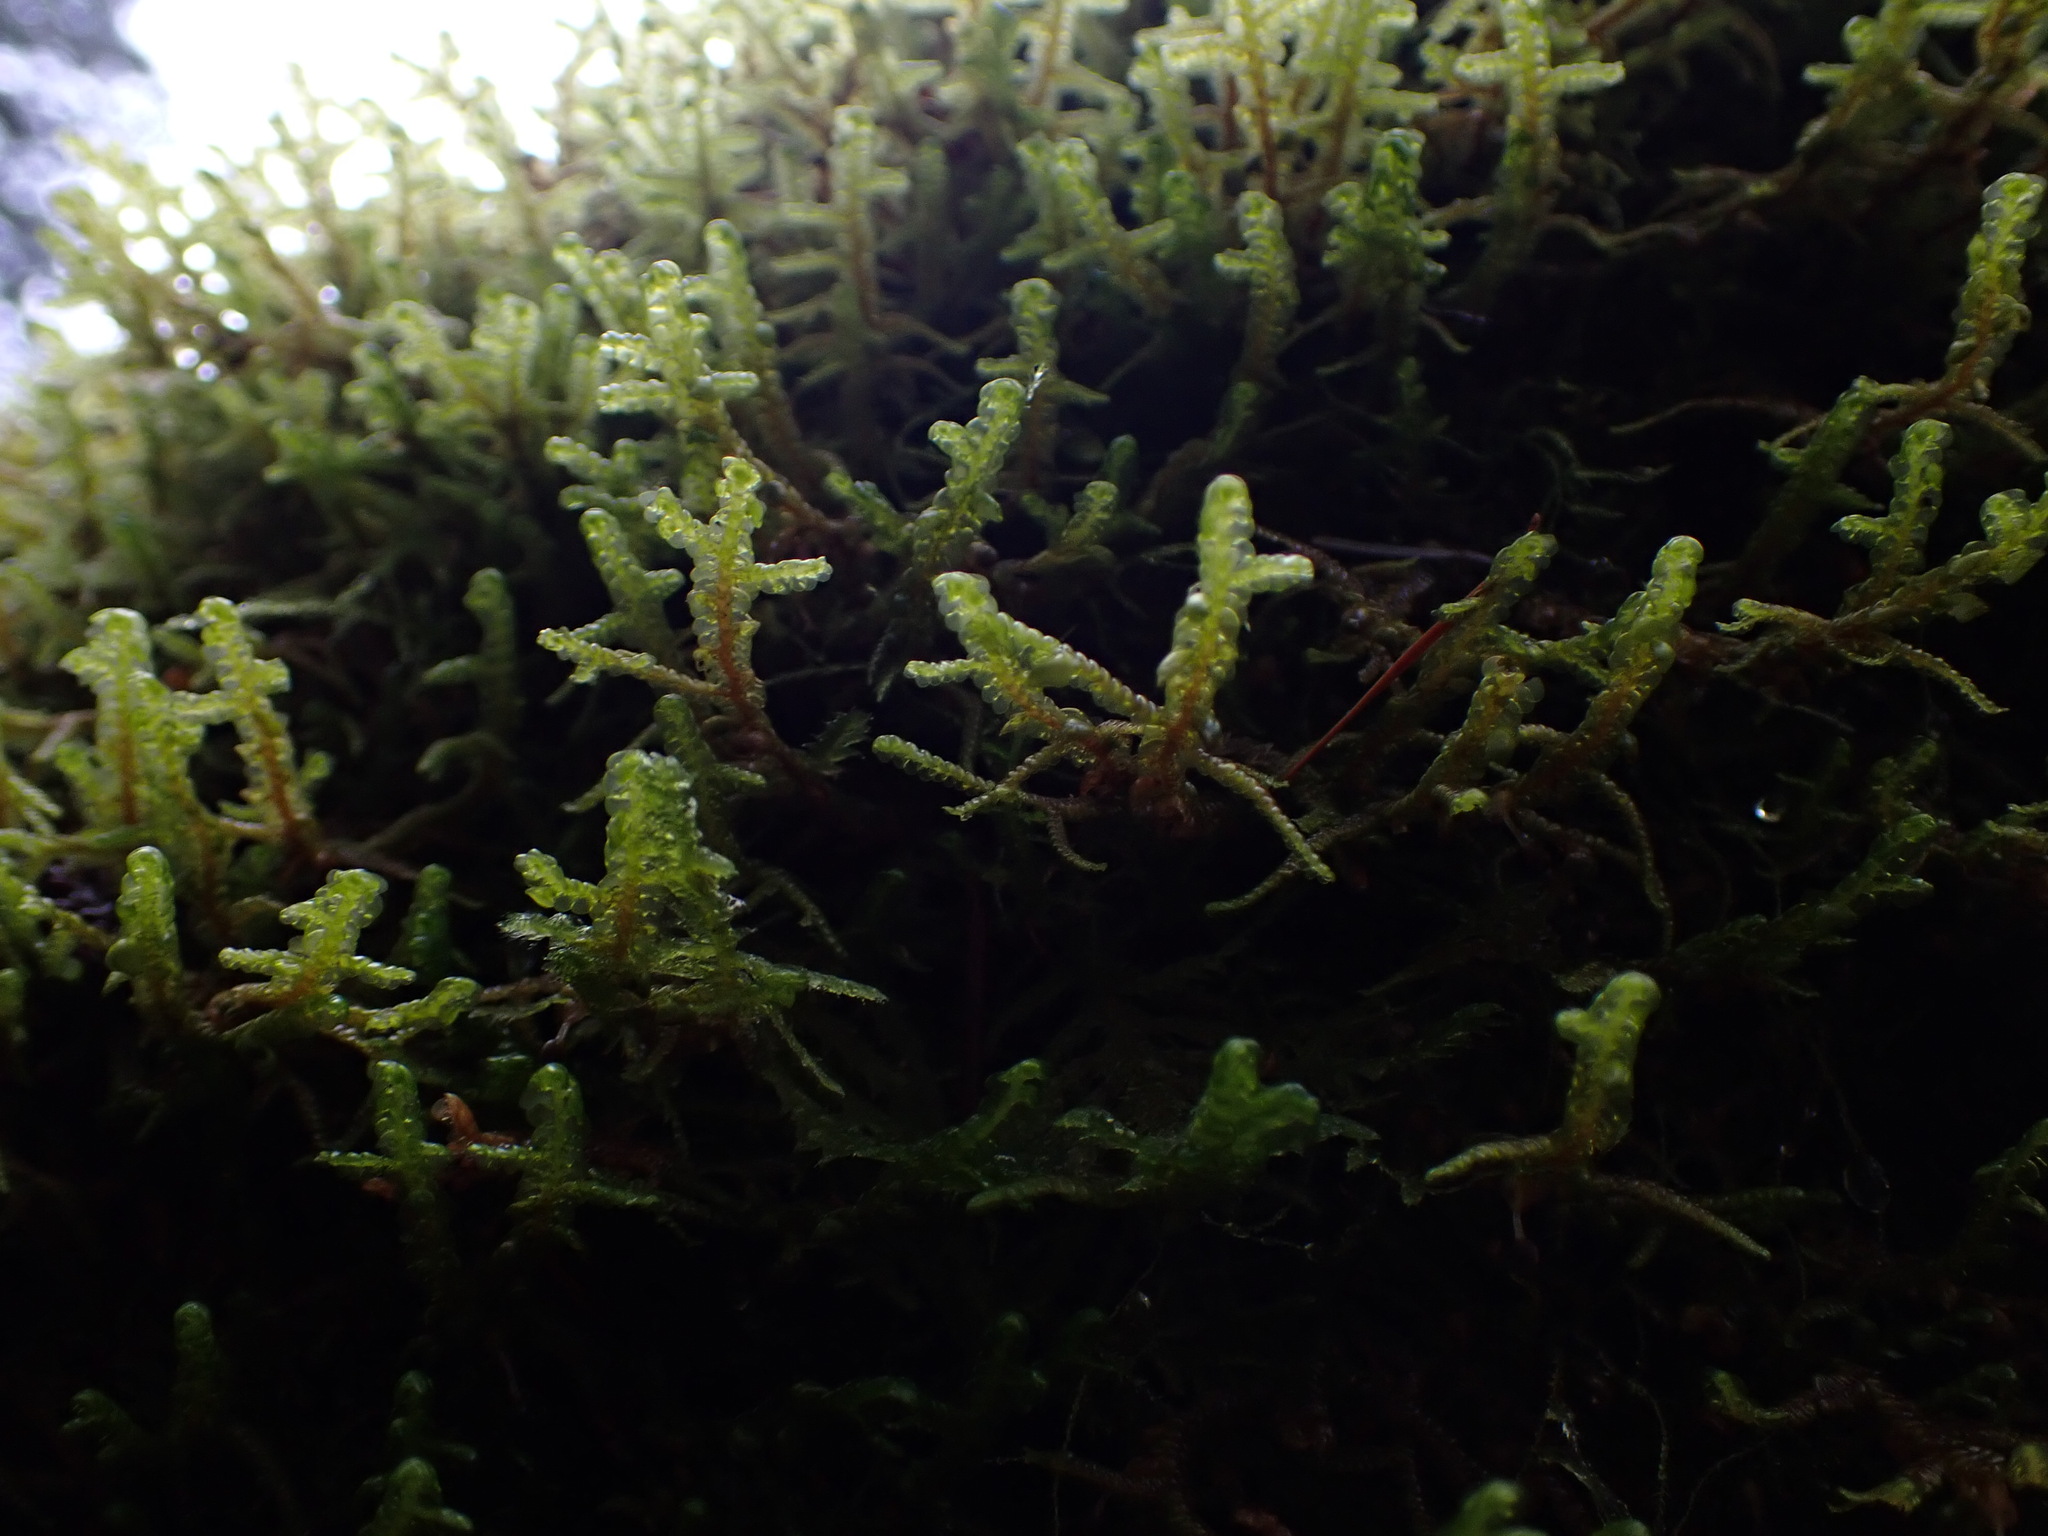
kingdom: Plantae
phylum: Marchantiophyta
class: Jungermanniopsida
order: Porellales
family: Porellaceae
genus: Porella
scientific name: Porella navicularis
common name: Tree ruffle liverwort
